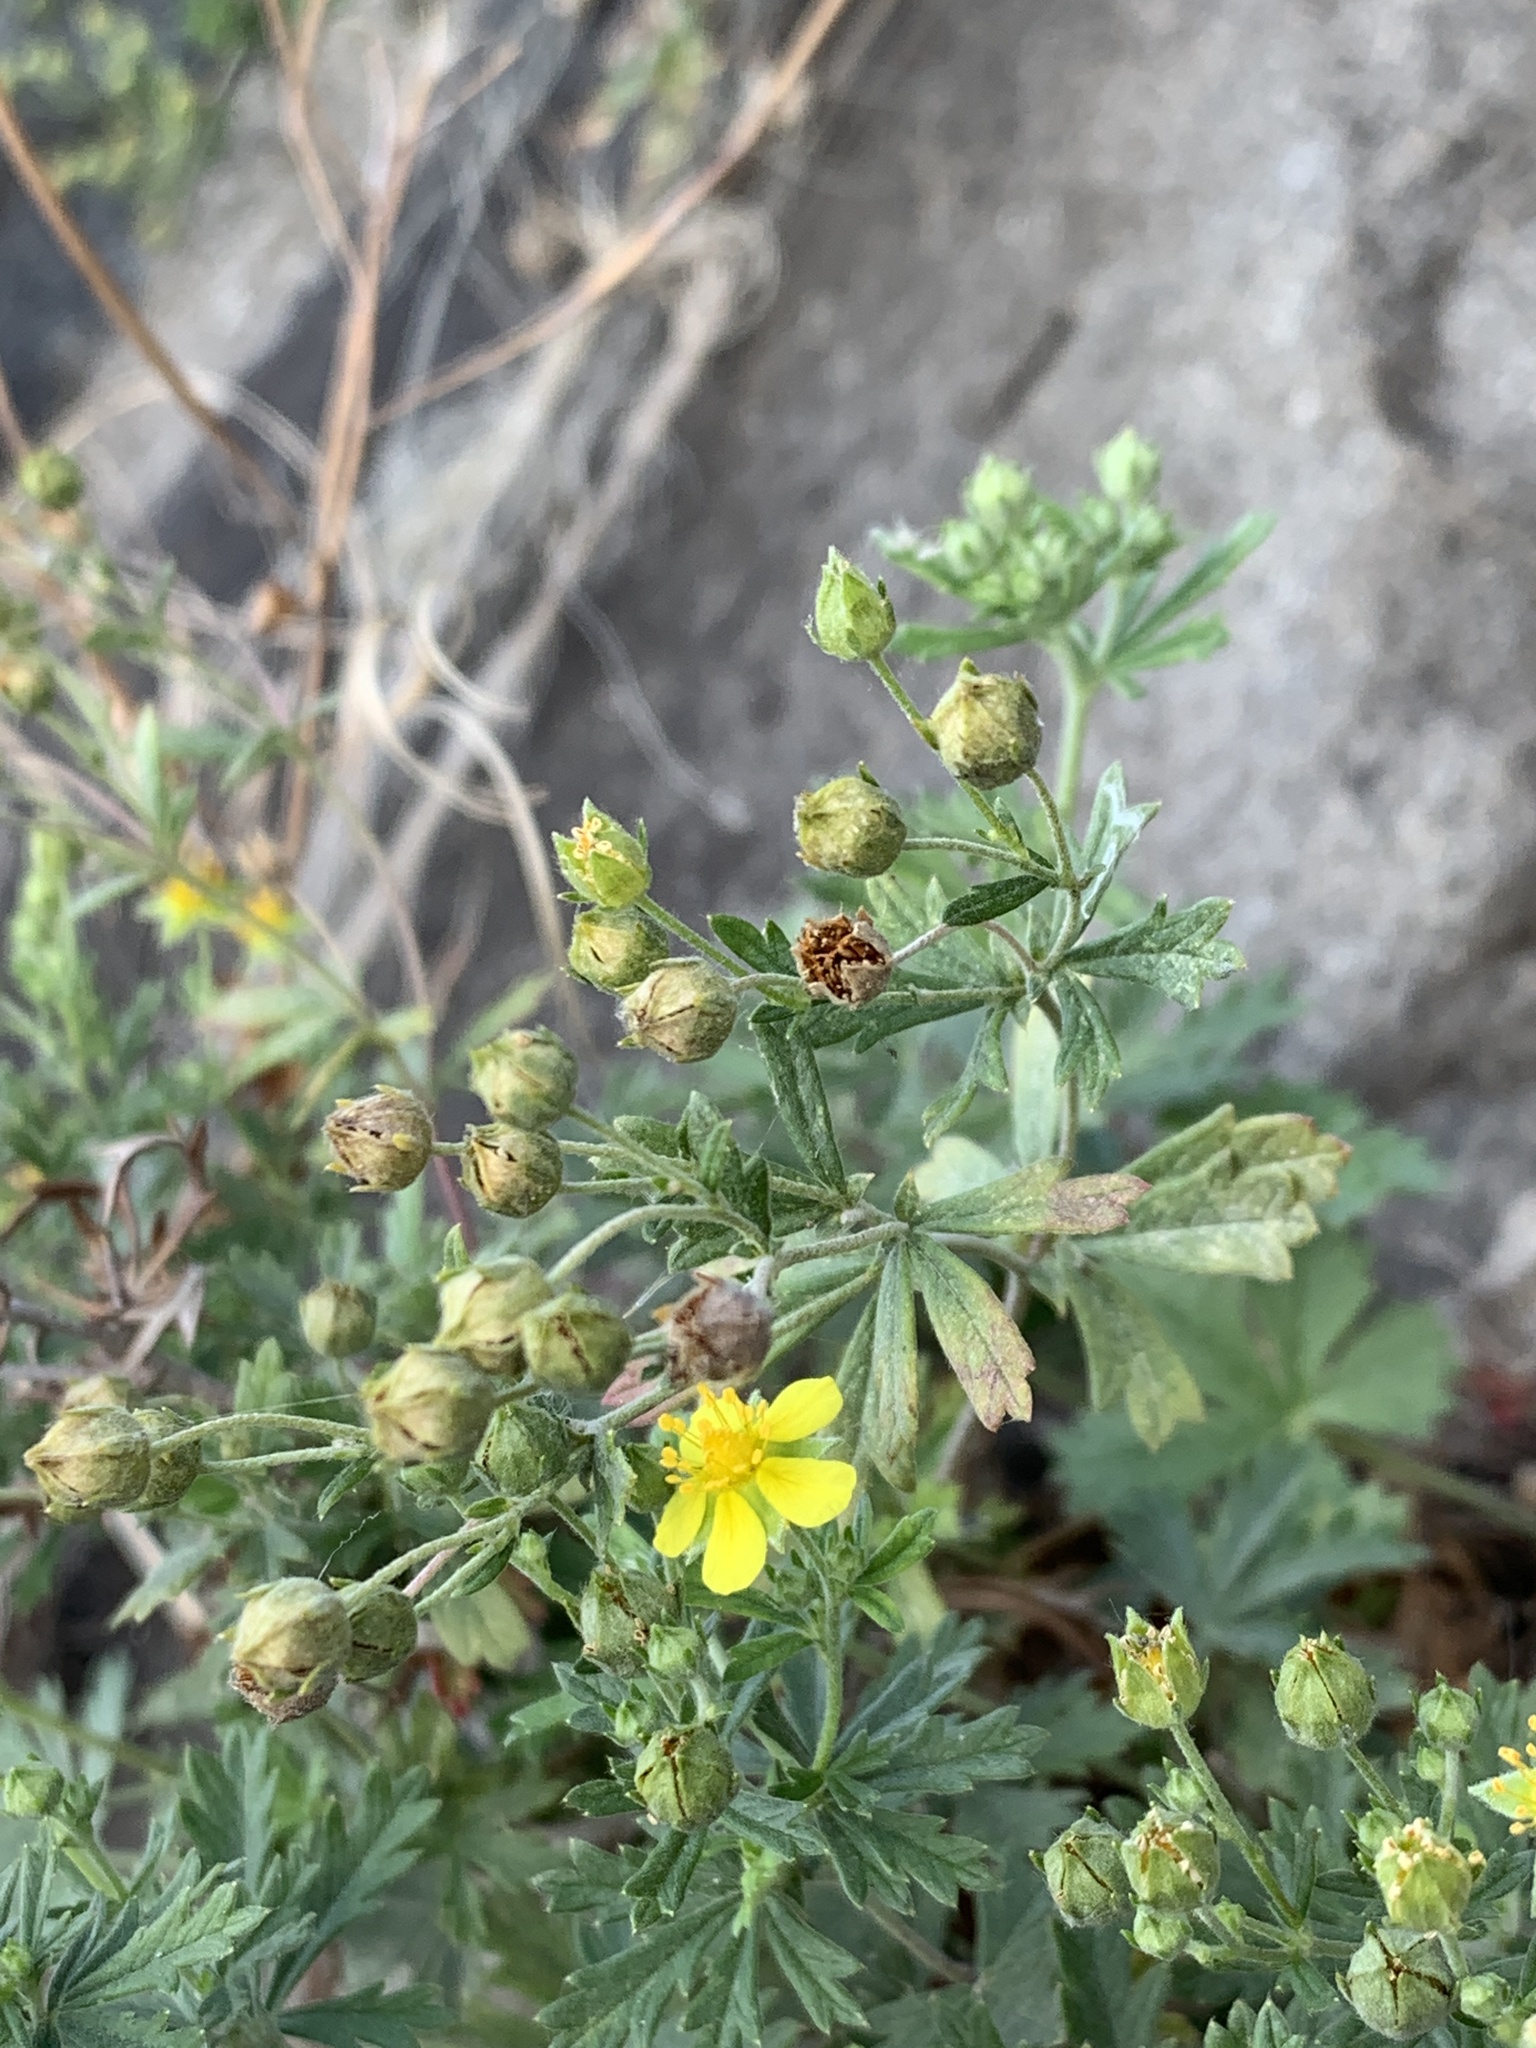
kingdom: Plantae
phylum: Tracheophyta
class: Magnoliopsida
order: Rosales
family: Rosaceae
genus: Potentilla
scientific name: Potentilla argentea
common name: Hoary cinquefoil
